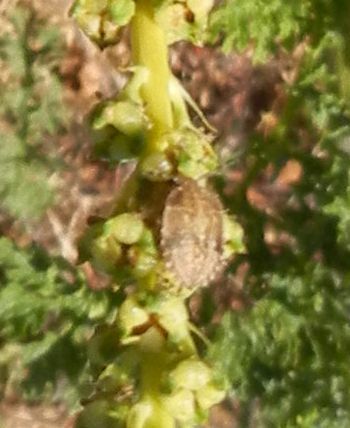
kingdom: Animalia
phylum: Arthropoda
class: Insecta
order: Hemiptera
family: Pentatomidae
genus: Dolycoris
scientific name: Dolycoris baccarum
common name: Sloe bug
